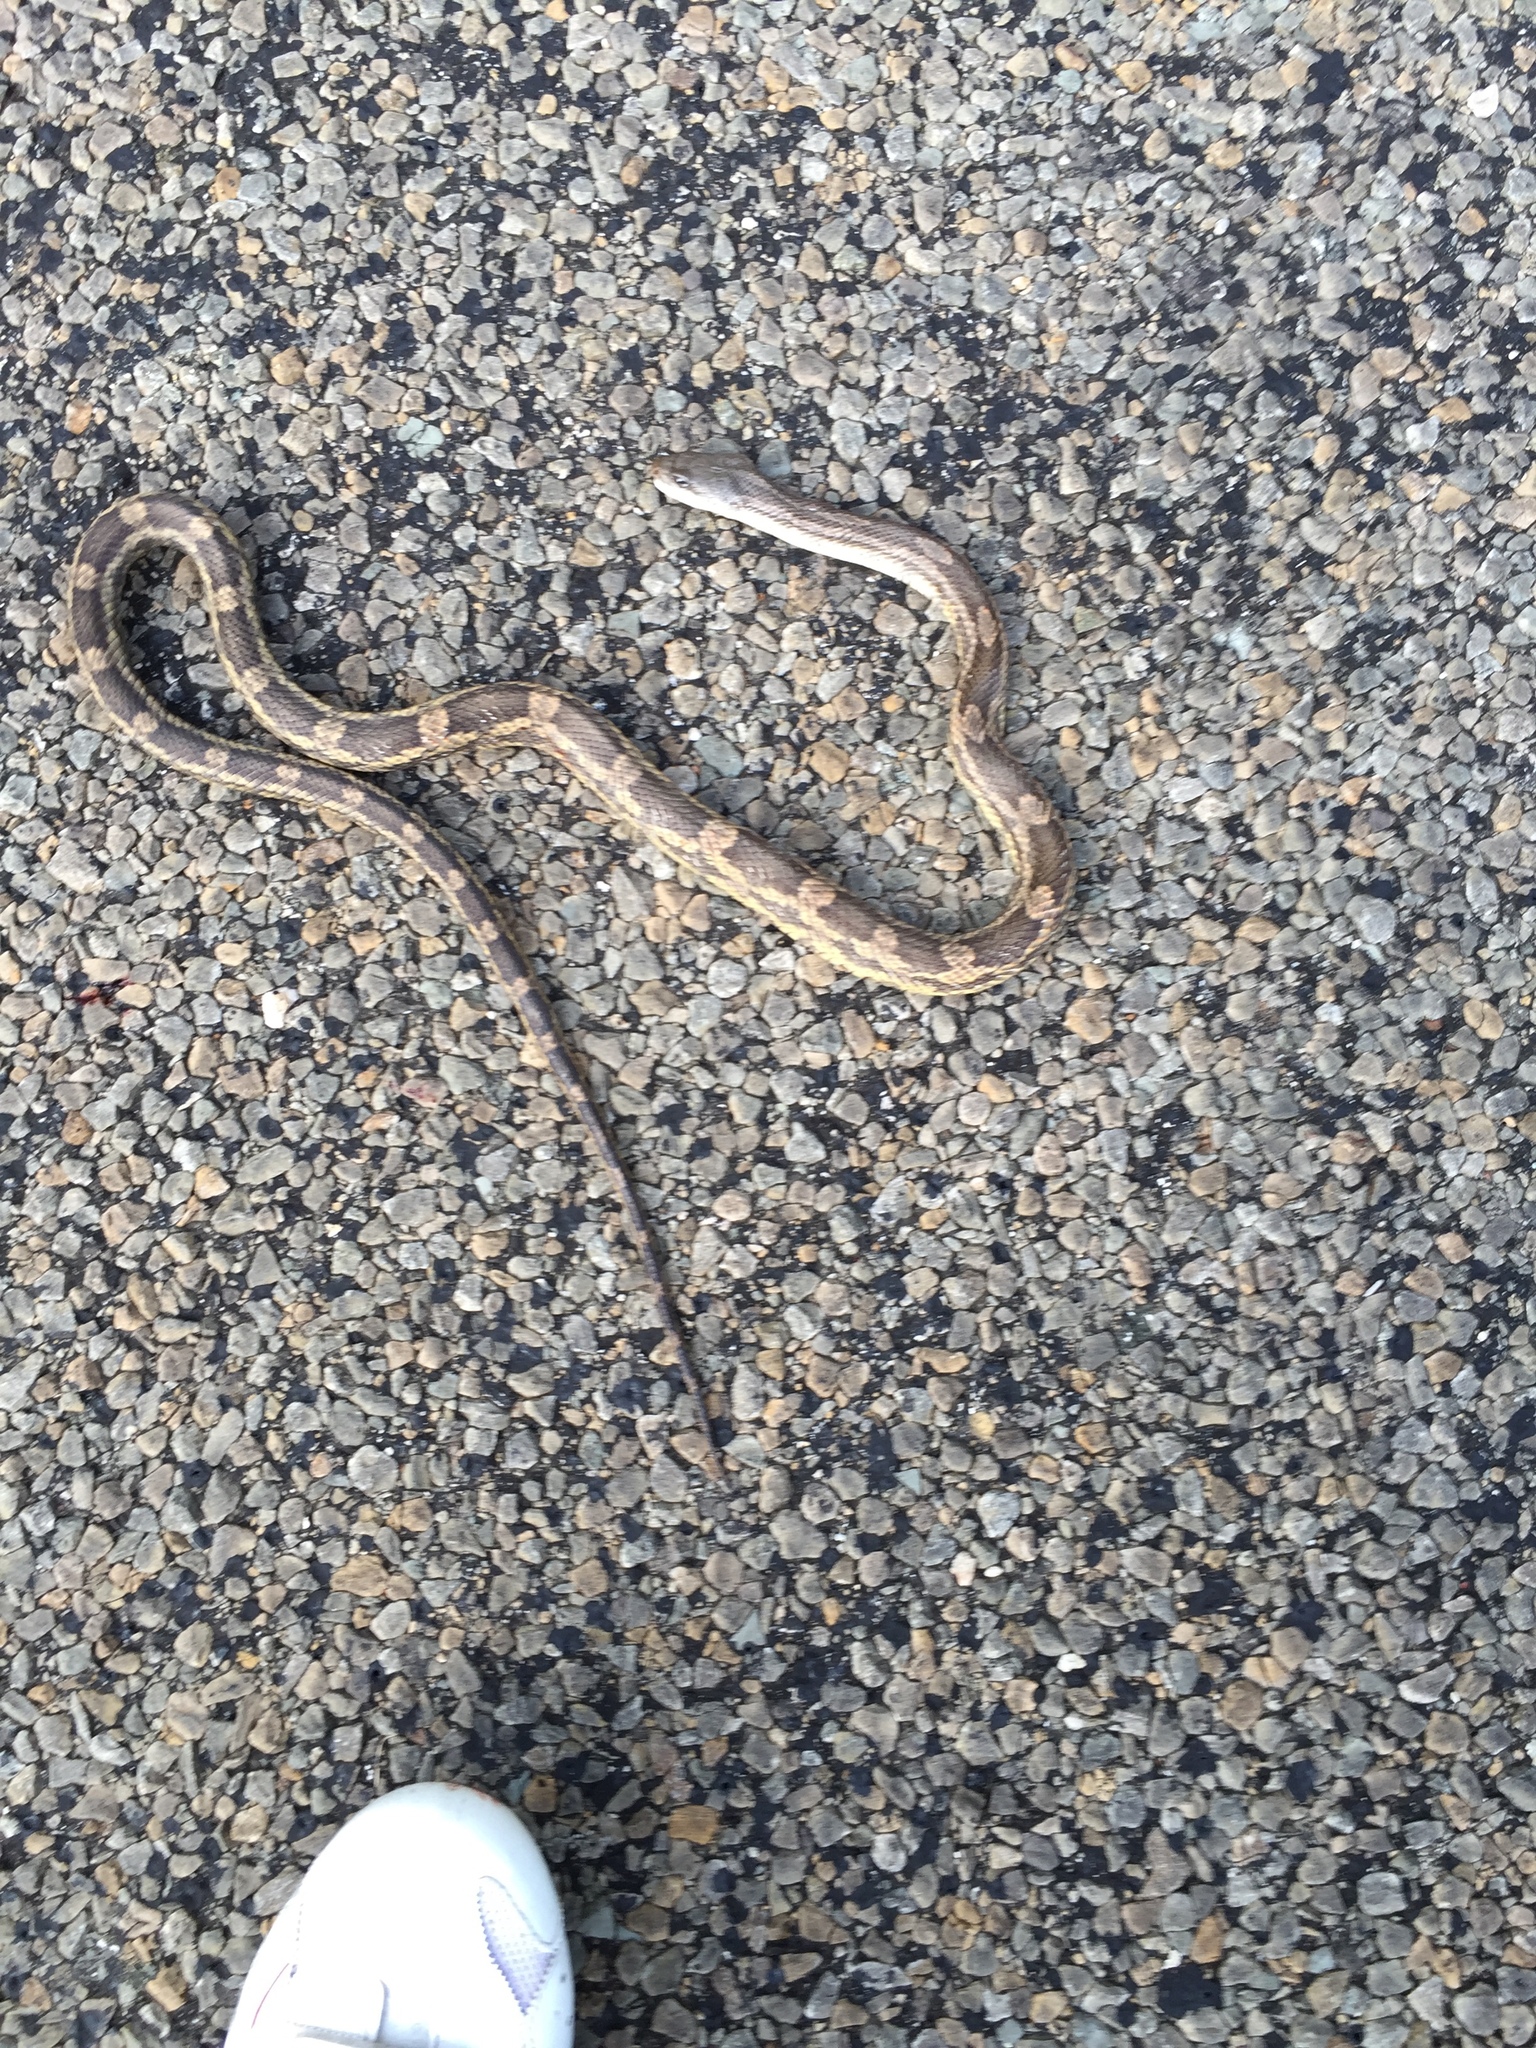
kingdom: Animalia
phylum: Chordata
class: Squamata
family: Colubridae
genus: Pantherophis
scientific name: Pantherophis obsoletus
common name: Black rat snake
